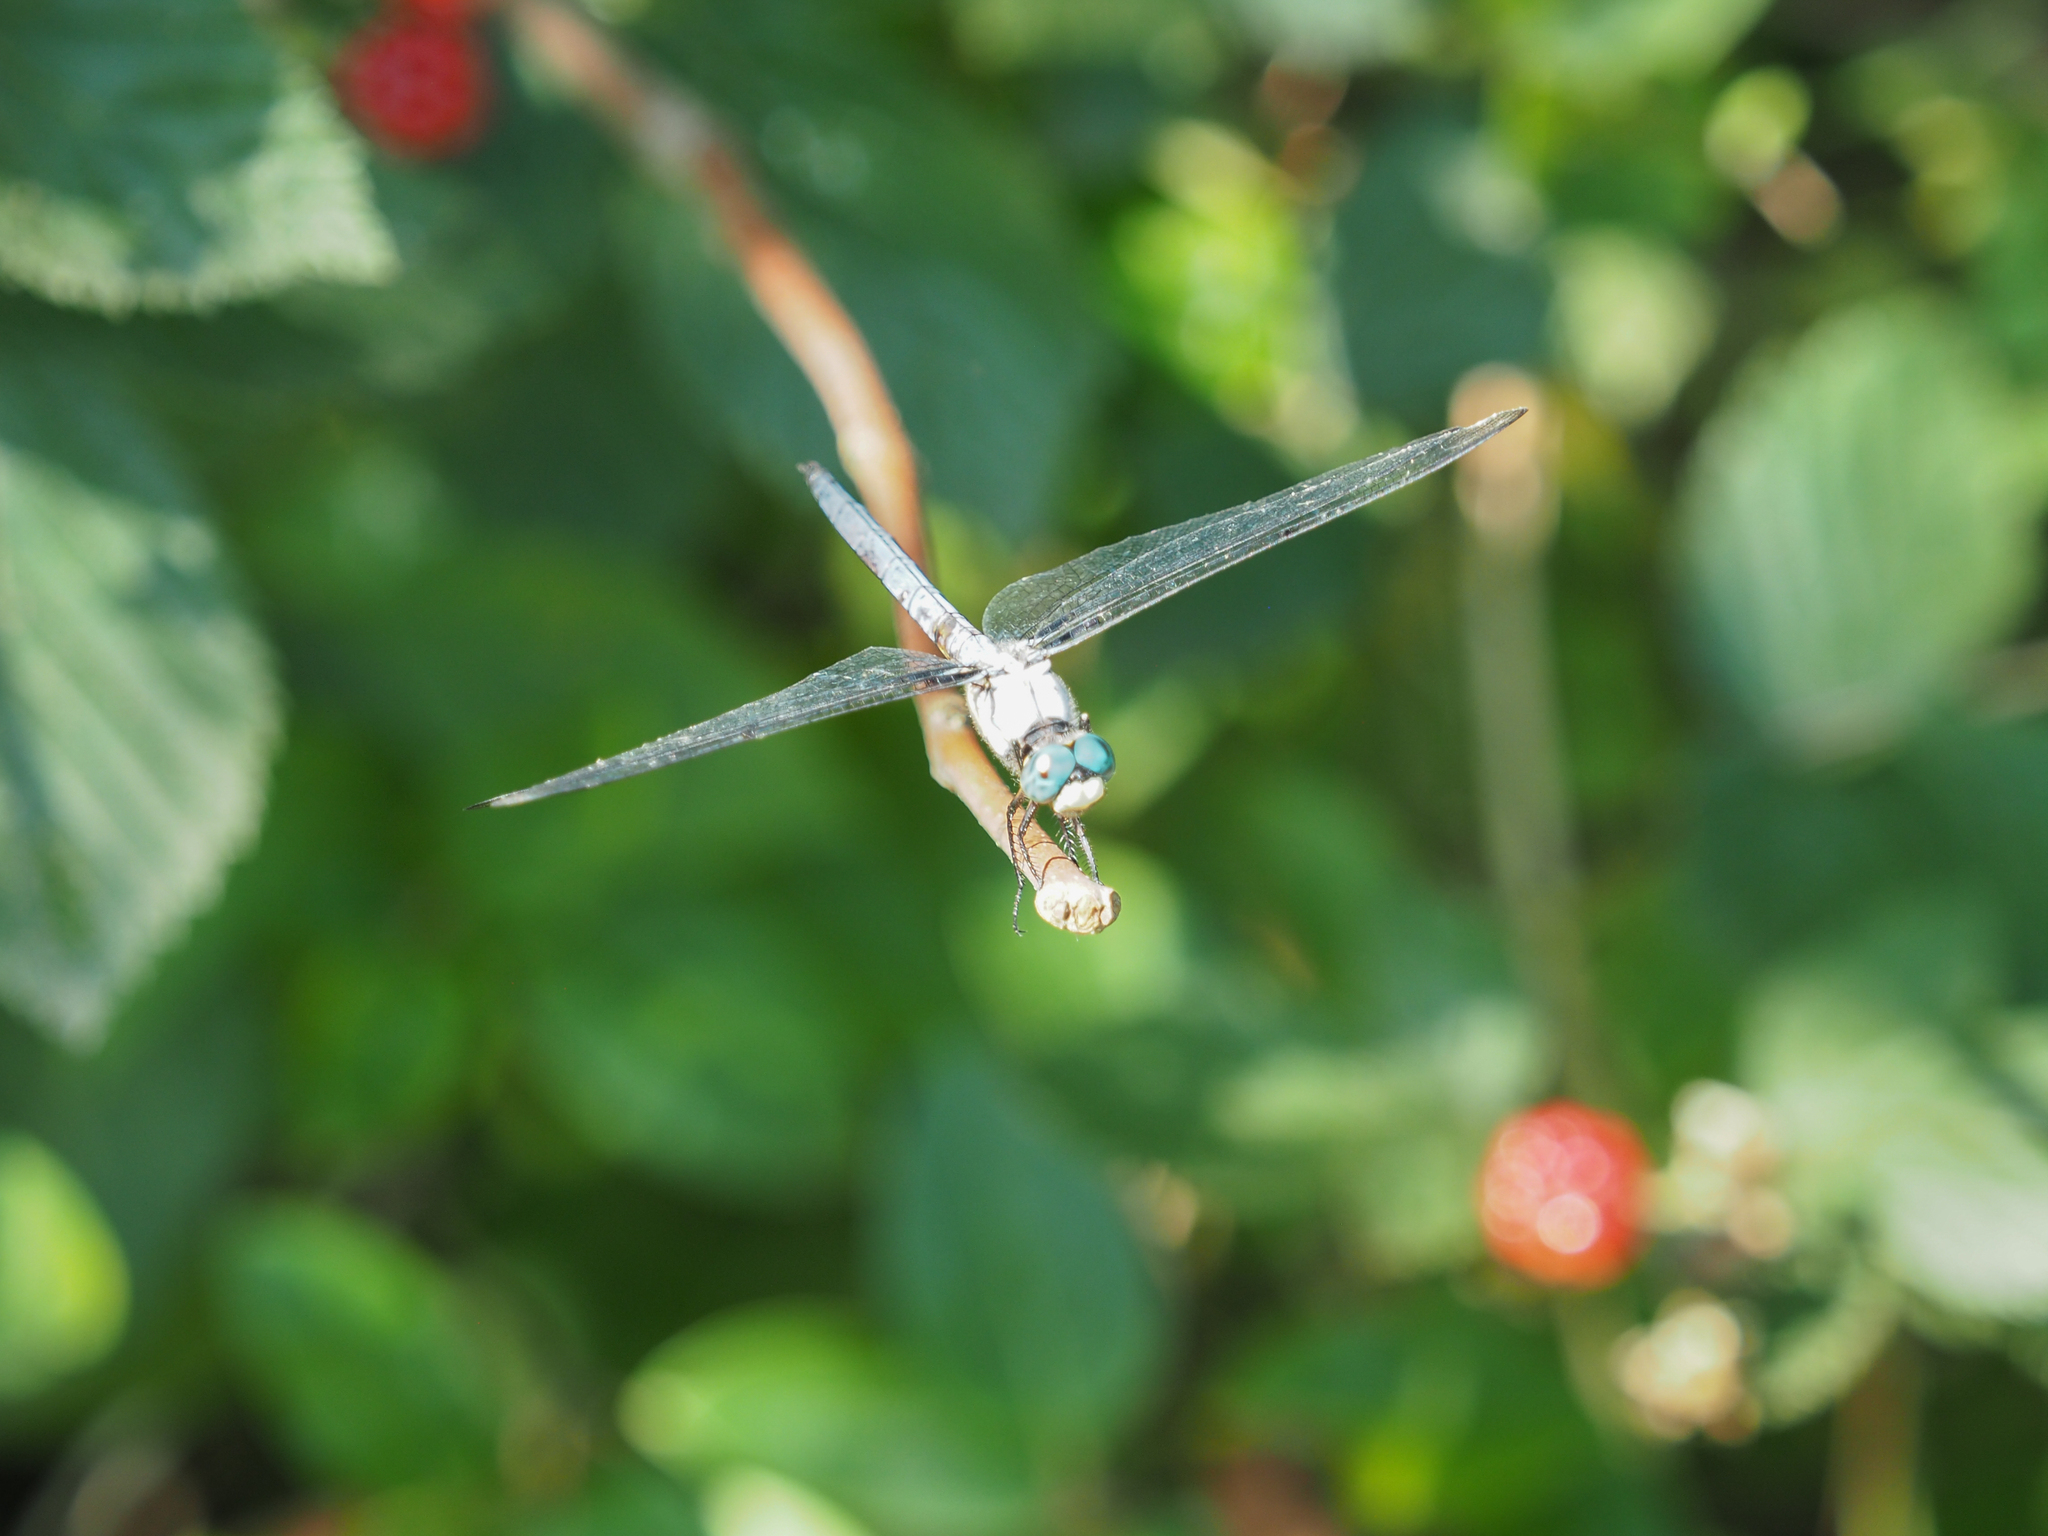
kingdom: Animalia
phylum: Arthropoda
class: Insecta
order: Odonata
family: Libellulidae
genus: Libellula
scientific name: Libellula vibrans
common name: Great blue skimmer
